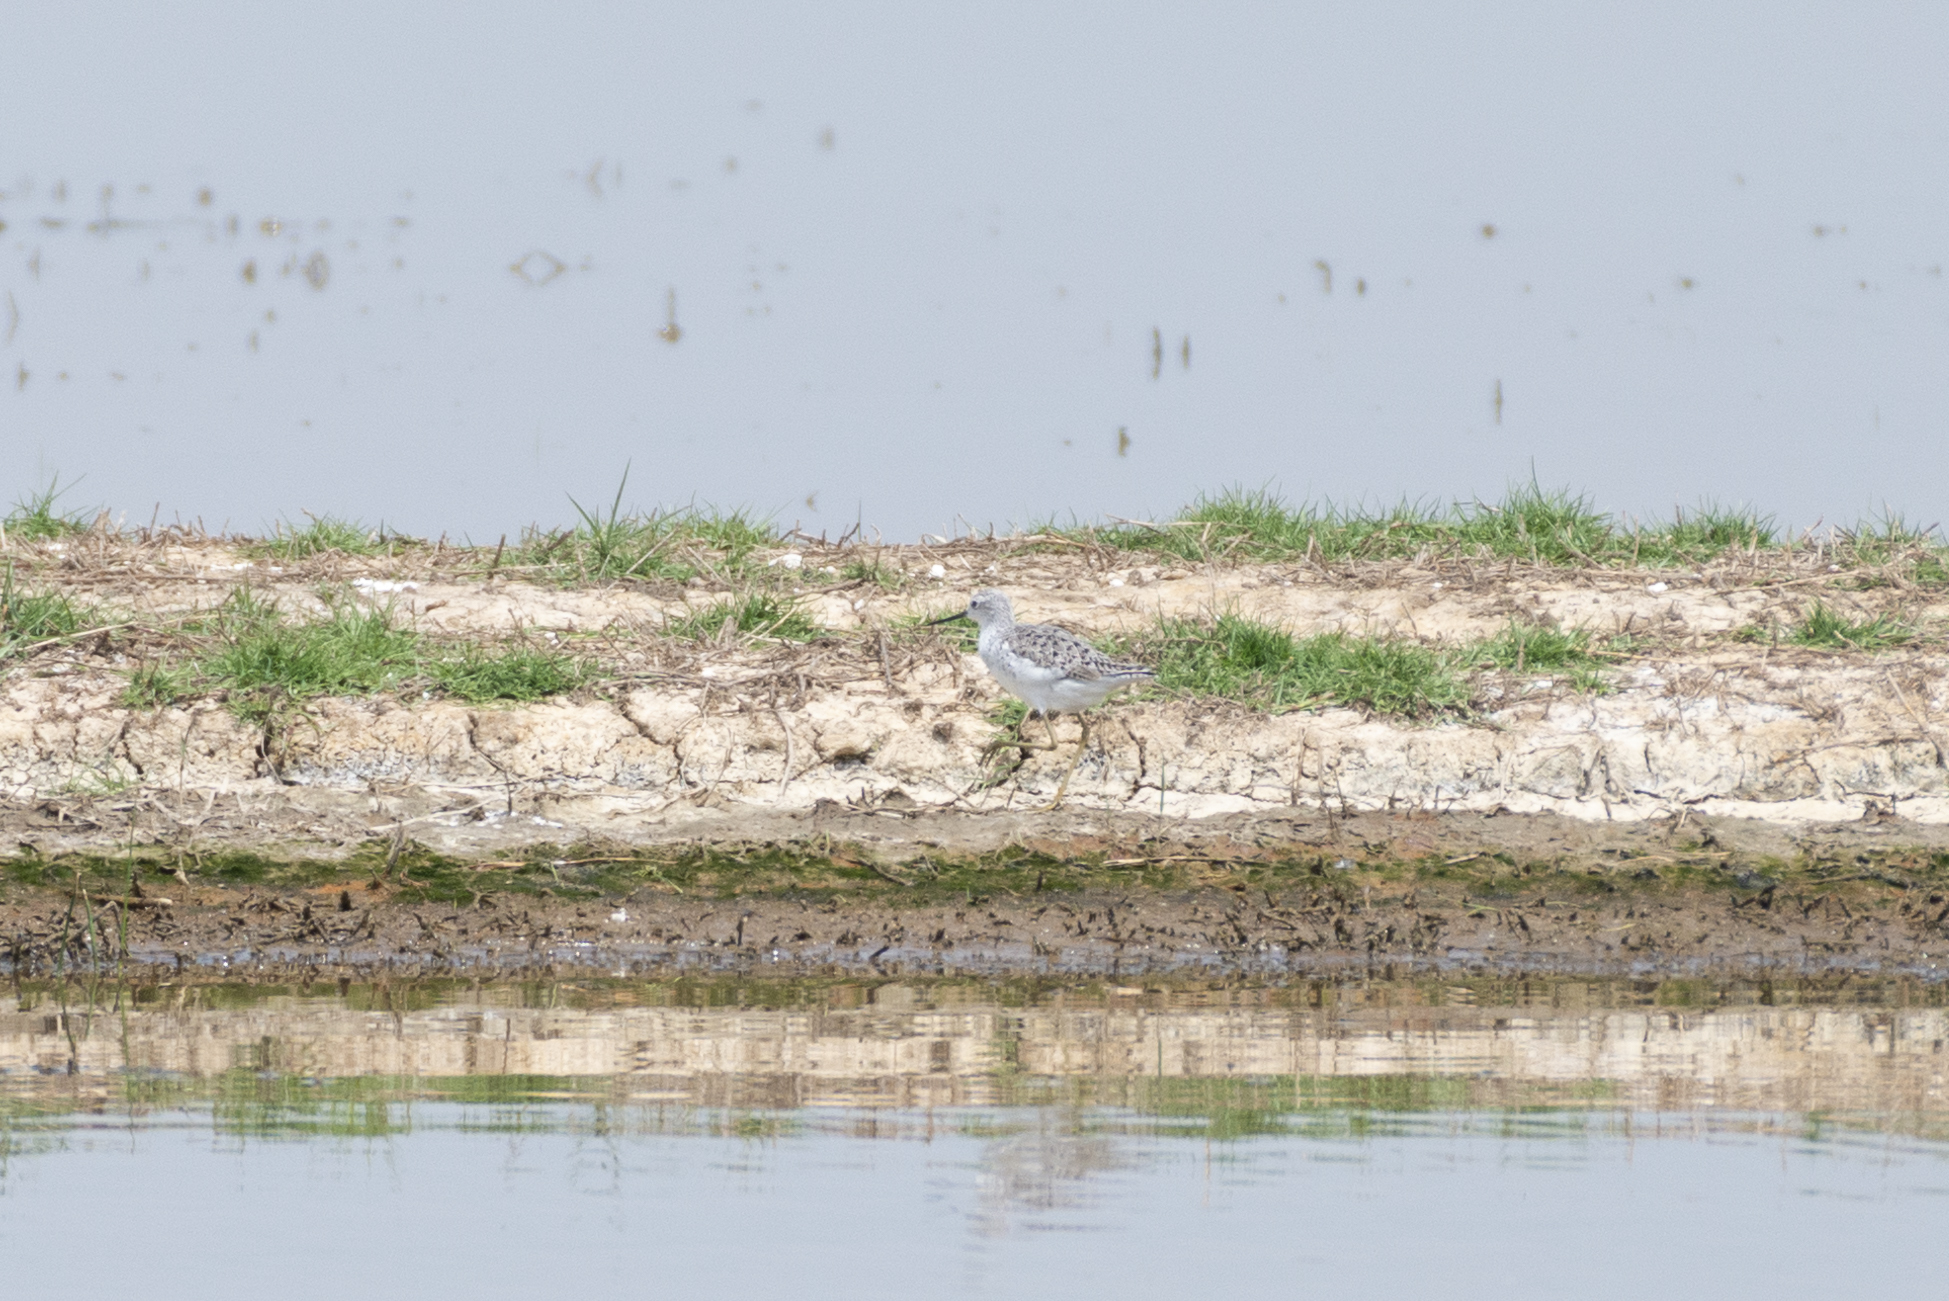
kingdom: Animalia
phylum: Chordata
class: Aves
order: Charadriiformes
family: Scolopacidae
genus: Tringa
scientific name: Tringa stagnatilis
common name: Marsh sandpiper
